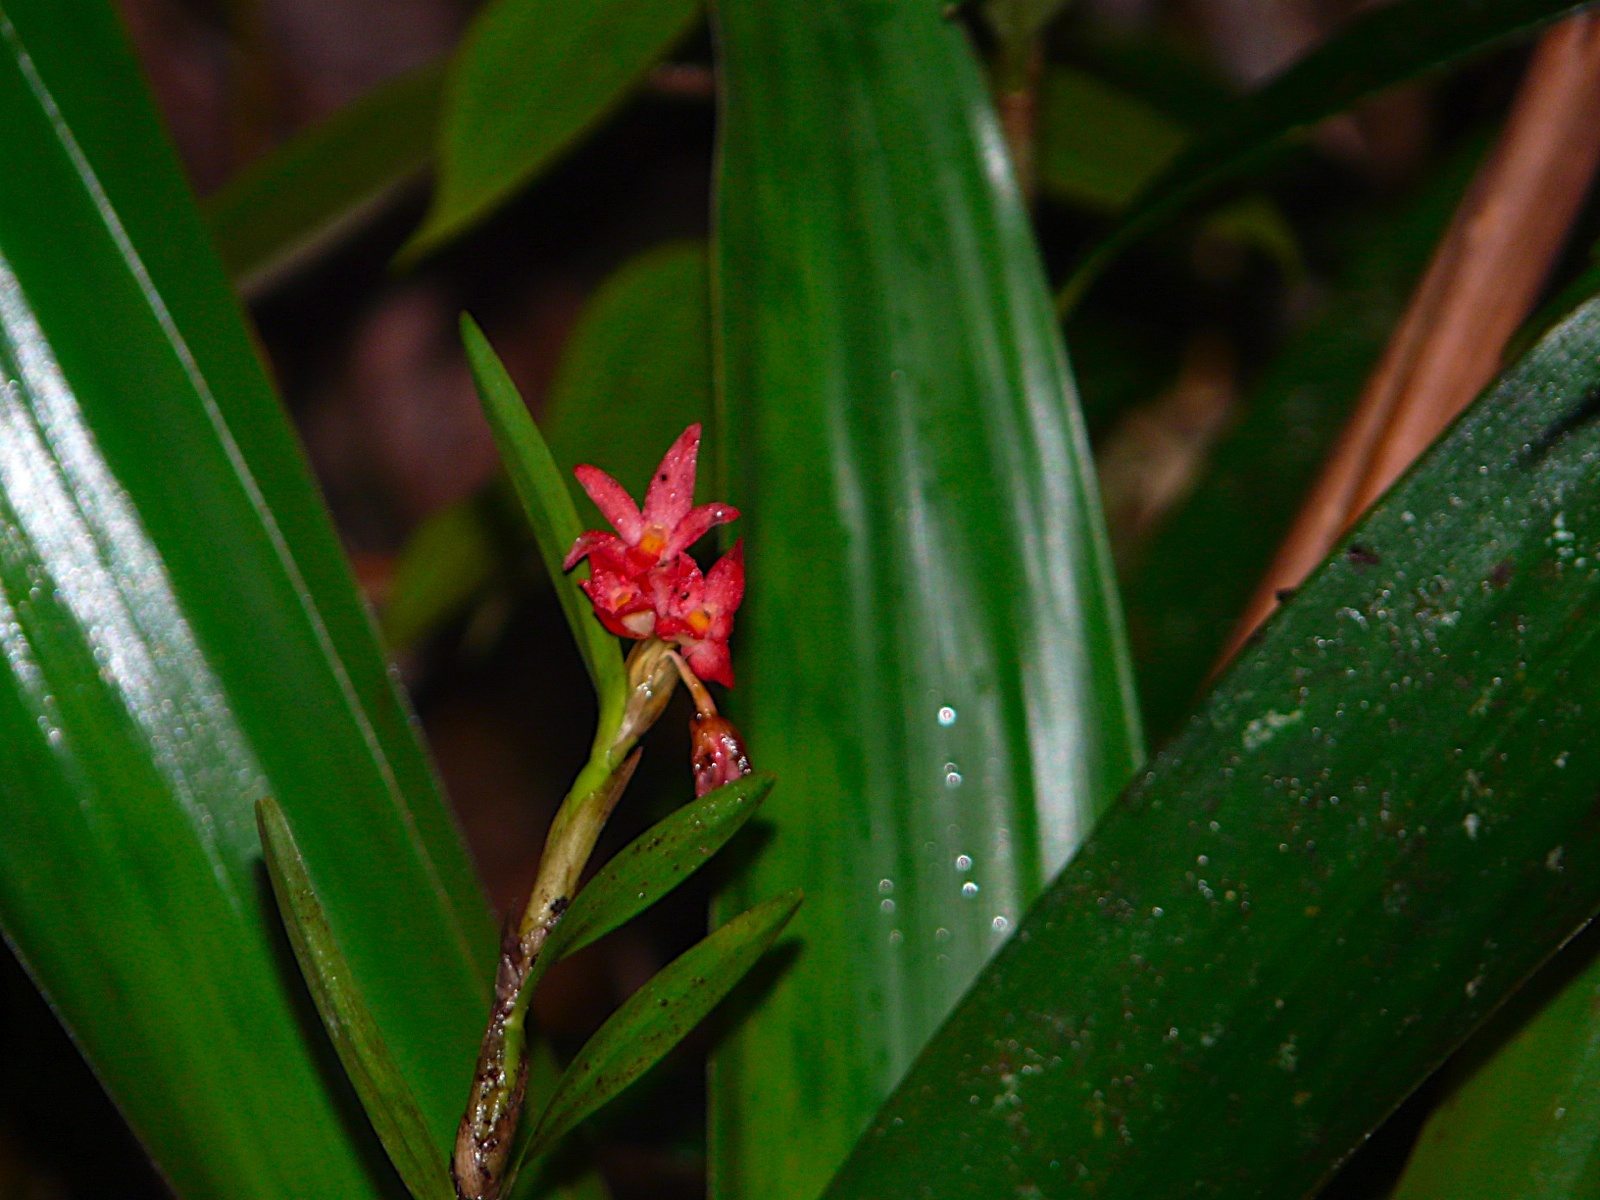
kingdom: Plantae
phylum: Tracheophyta
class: Liliopsida
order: Asparagales
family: Orchidaceae
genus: Scaphyglottis
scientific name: Scaphyglottis imbricata
